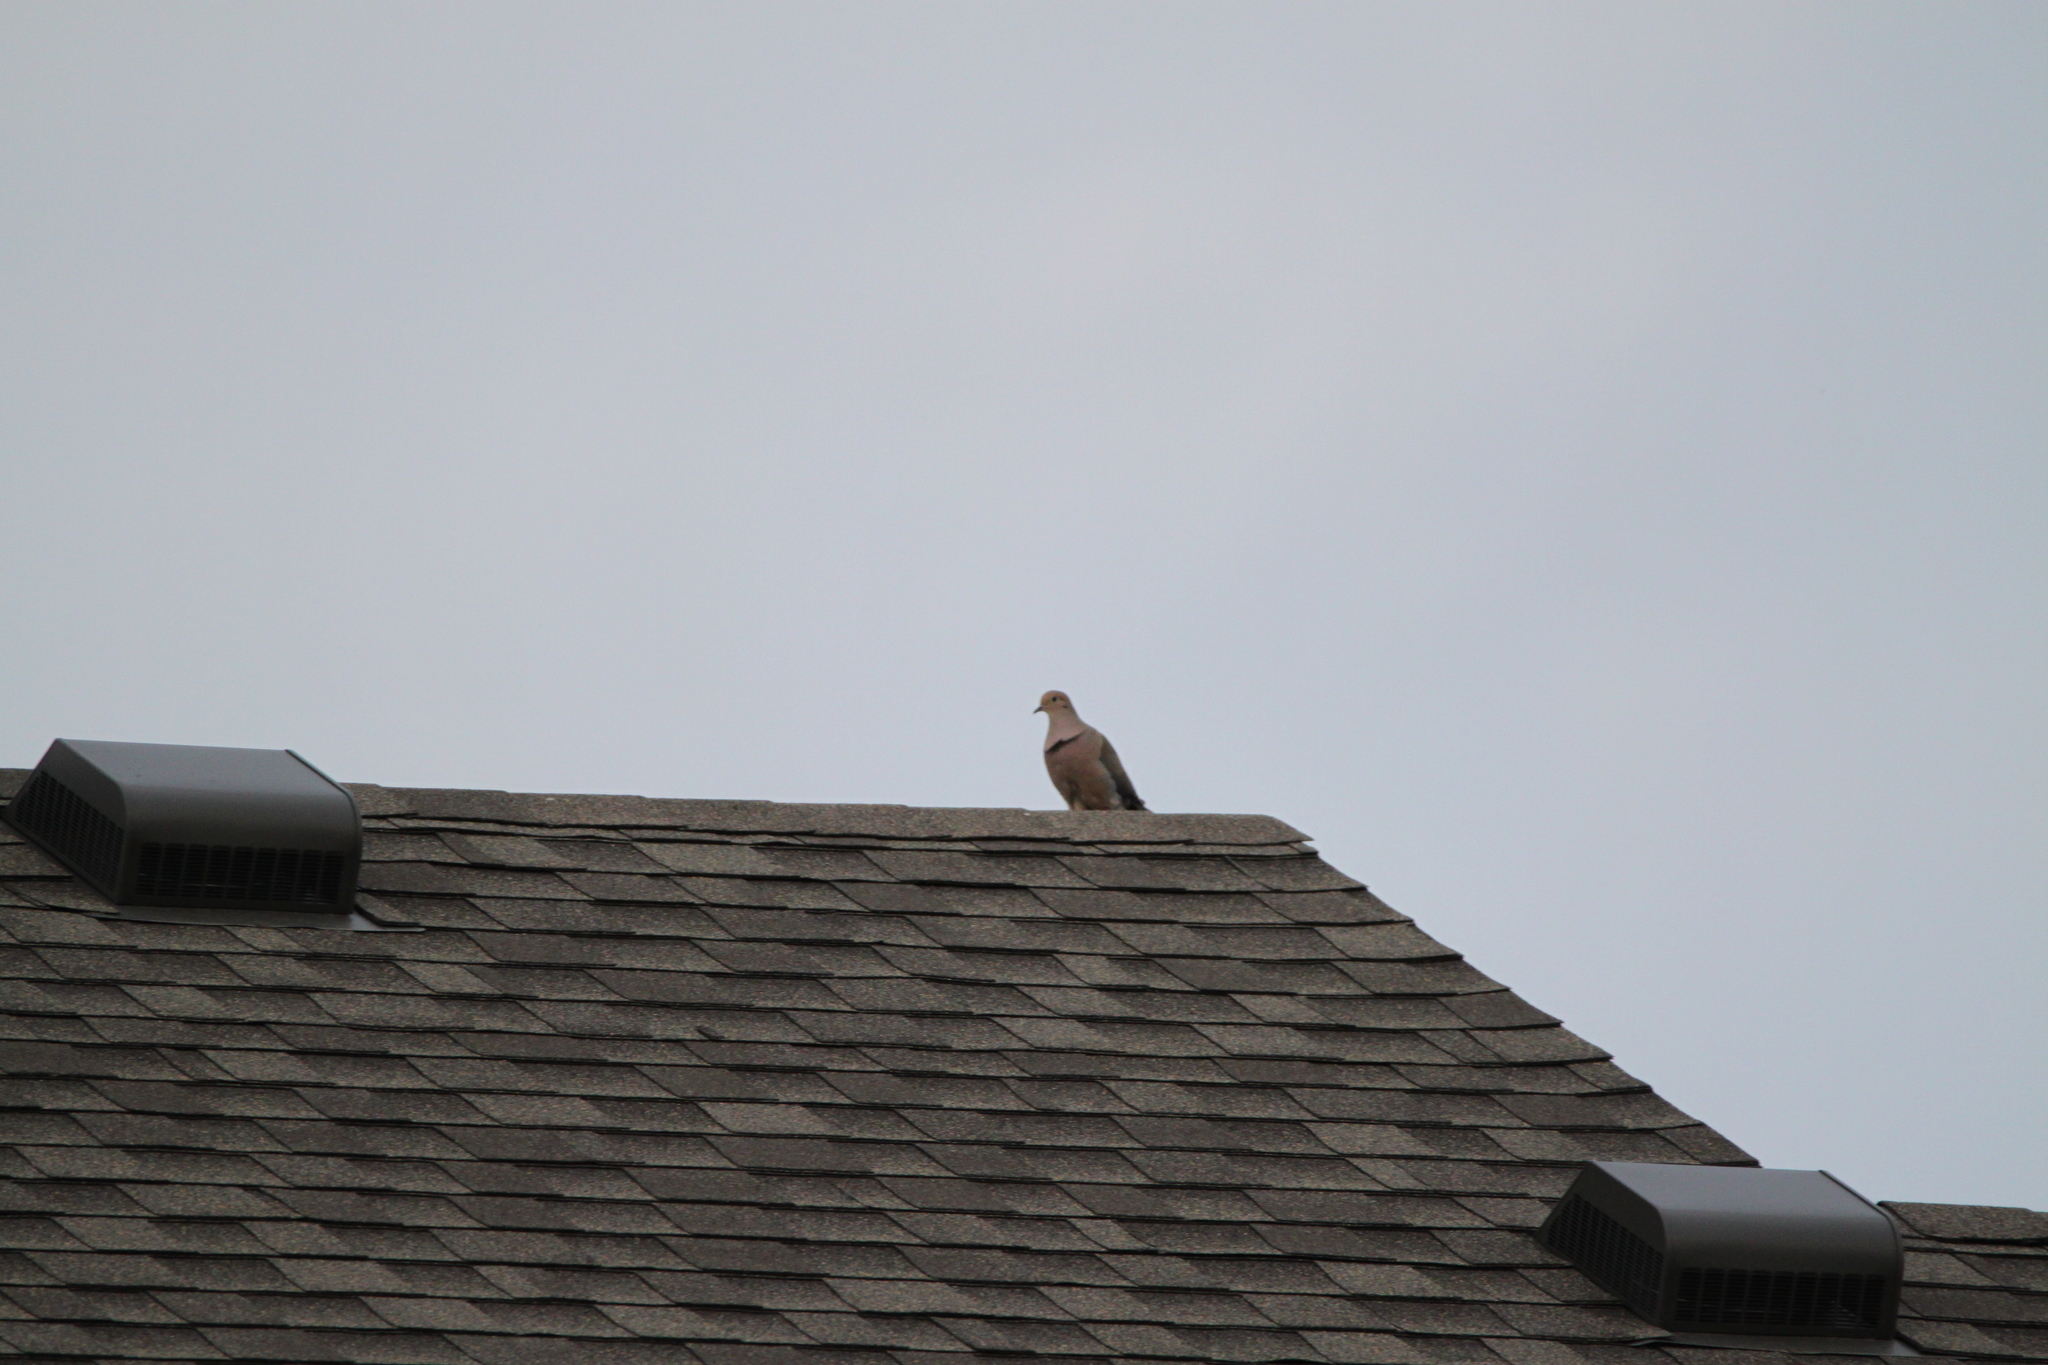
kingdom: Animalia
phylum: Chordata
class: Aves
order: Columbiformes
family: Columbidae
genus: Zenaida
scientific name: Zenaida macroura
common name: Mourning dove
